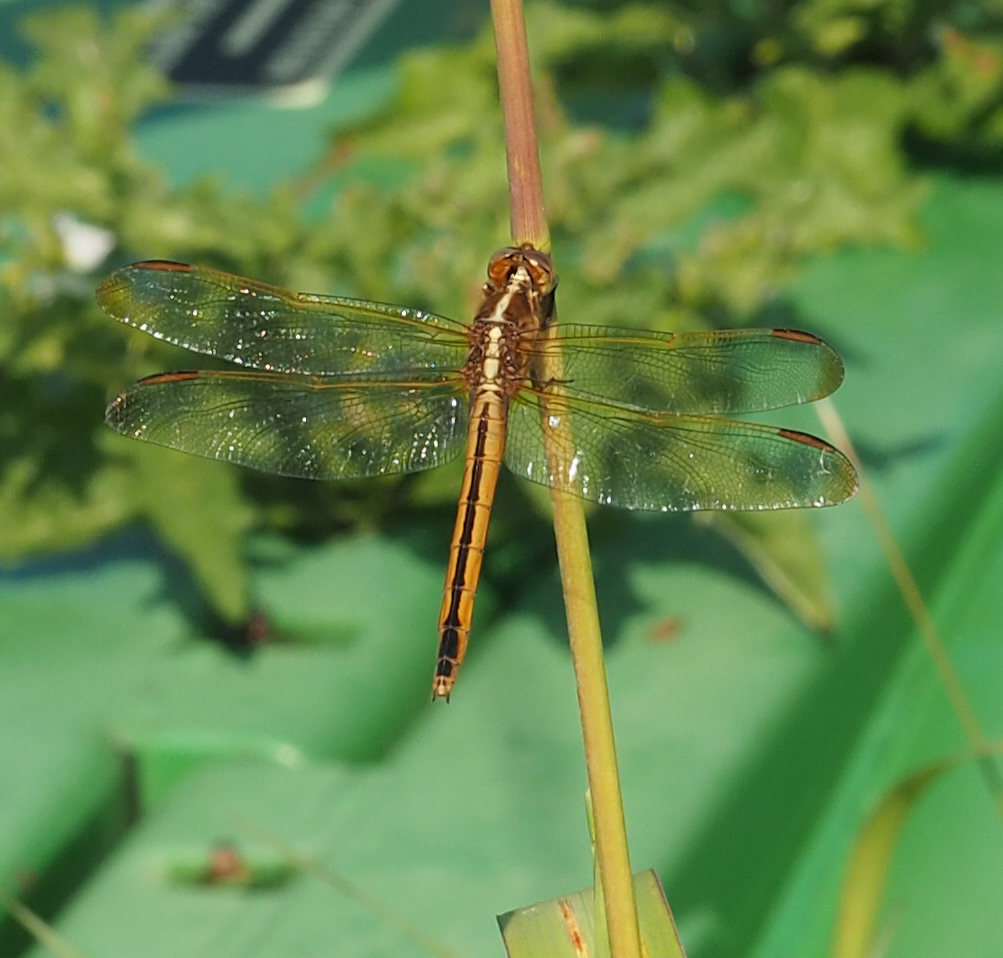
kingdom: Animalia
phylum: Arthropoda
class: Insecta
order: Odonata
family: Libellulidae
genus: Libellula
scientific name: Libellula needhami
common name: Needham's skimmer
